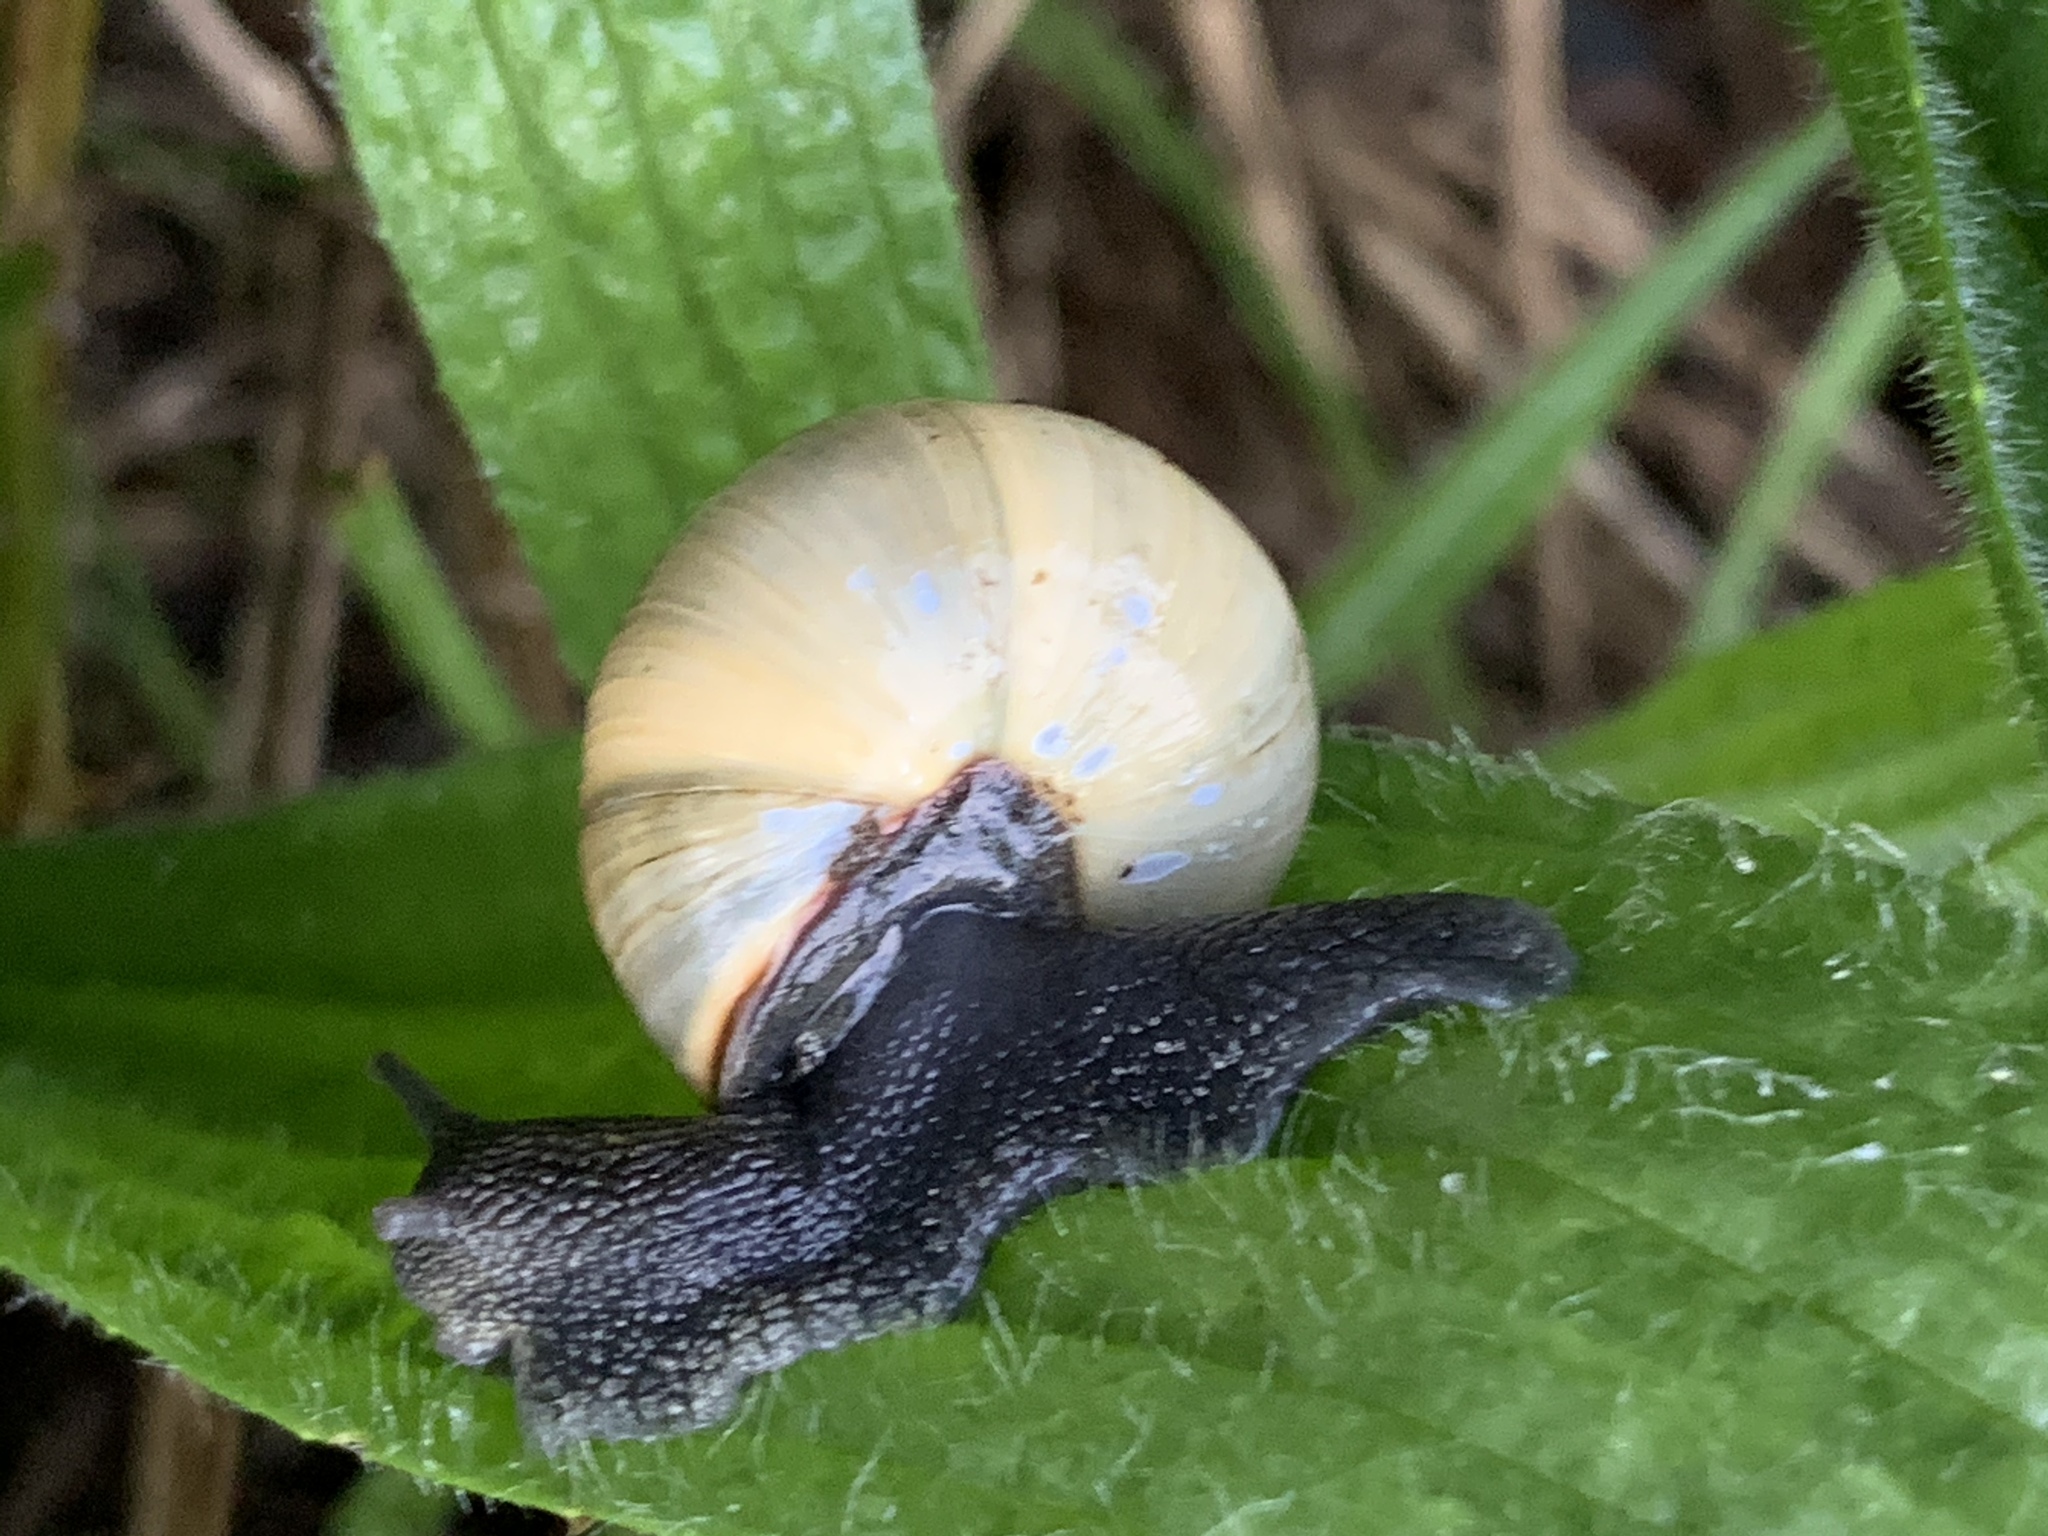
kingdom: Animalia
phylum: Mollusca
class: Gastropoda
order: Stylommatophora
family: Helicidae
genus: Cepaea
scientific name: Cepaea nemoralis
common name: Grovesnail
